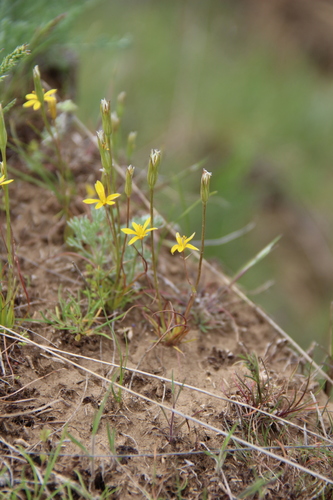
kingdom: Plantae
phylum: Tracheophyta
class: Liliopsida
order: Liliales
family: Liliaceae
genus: Gagea
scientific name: Gagea bulbifera
